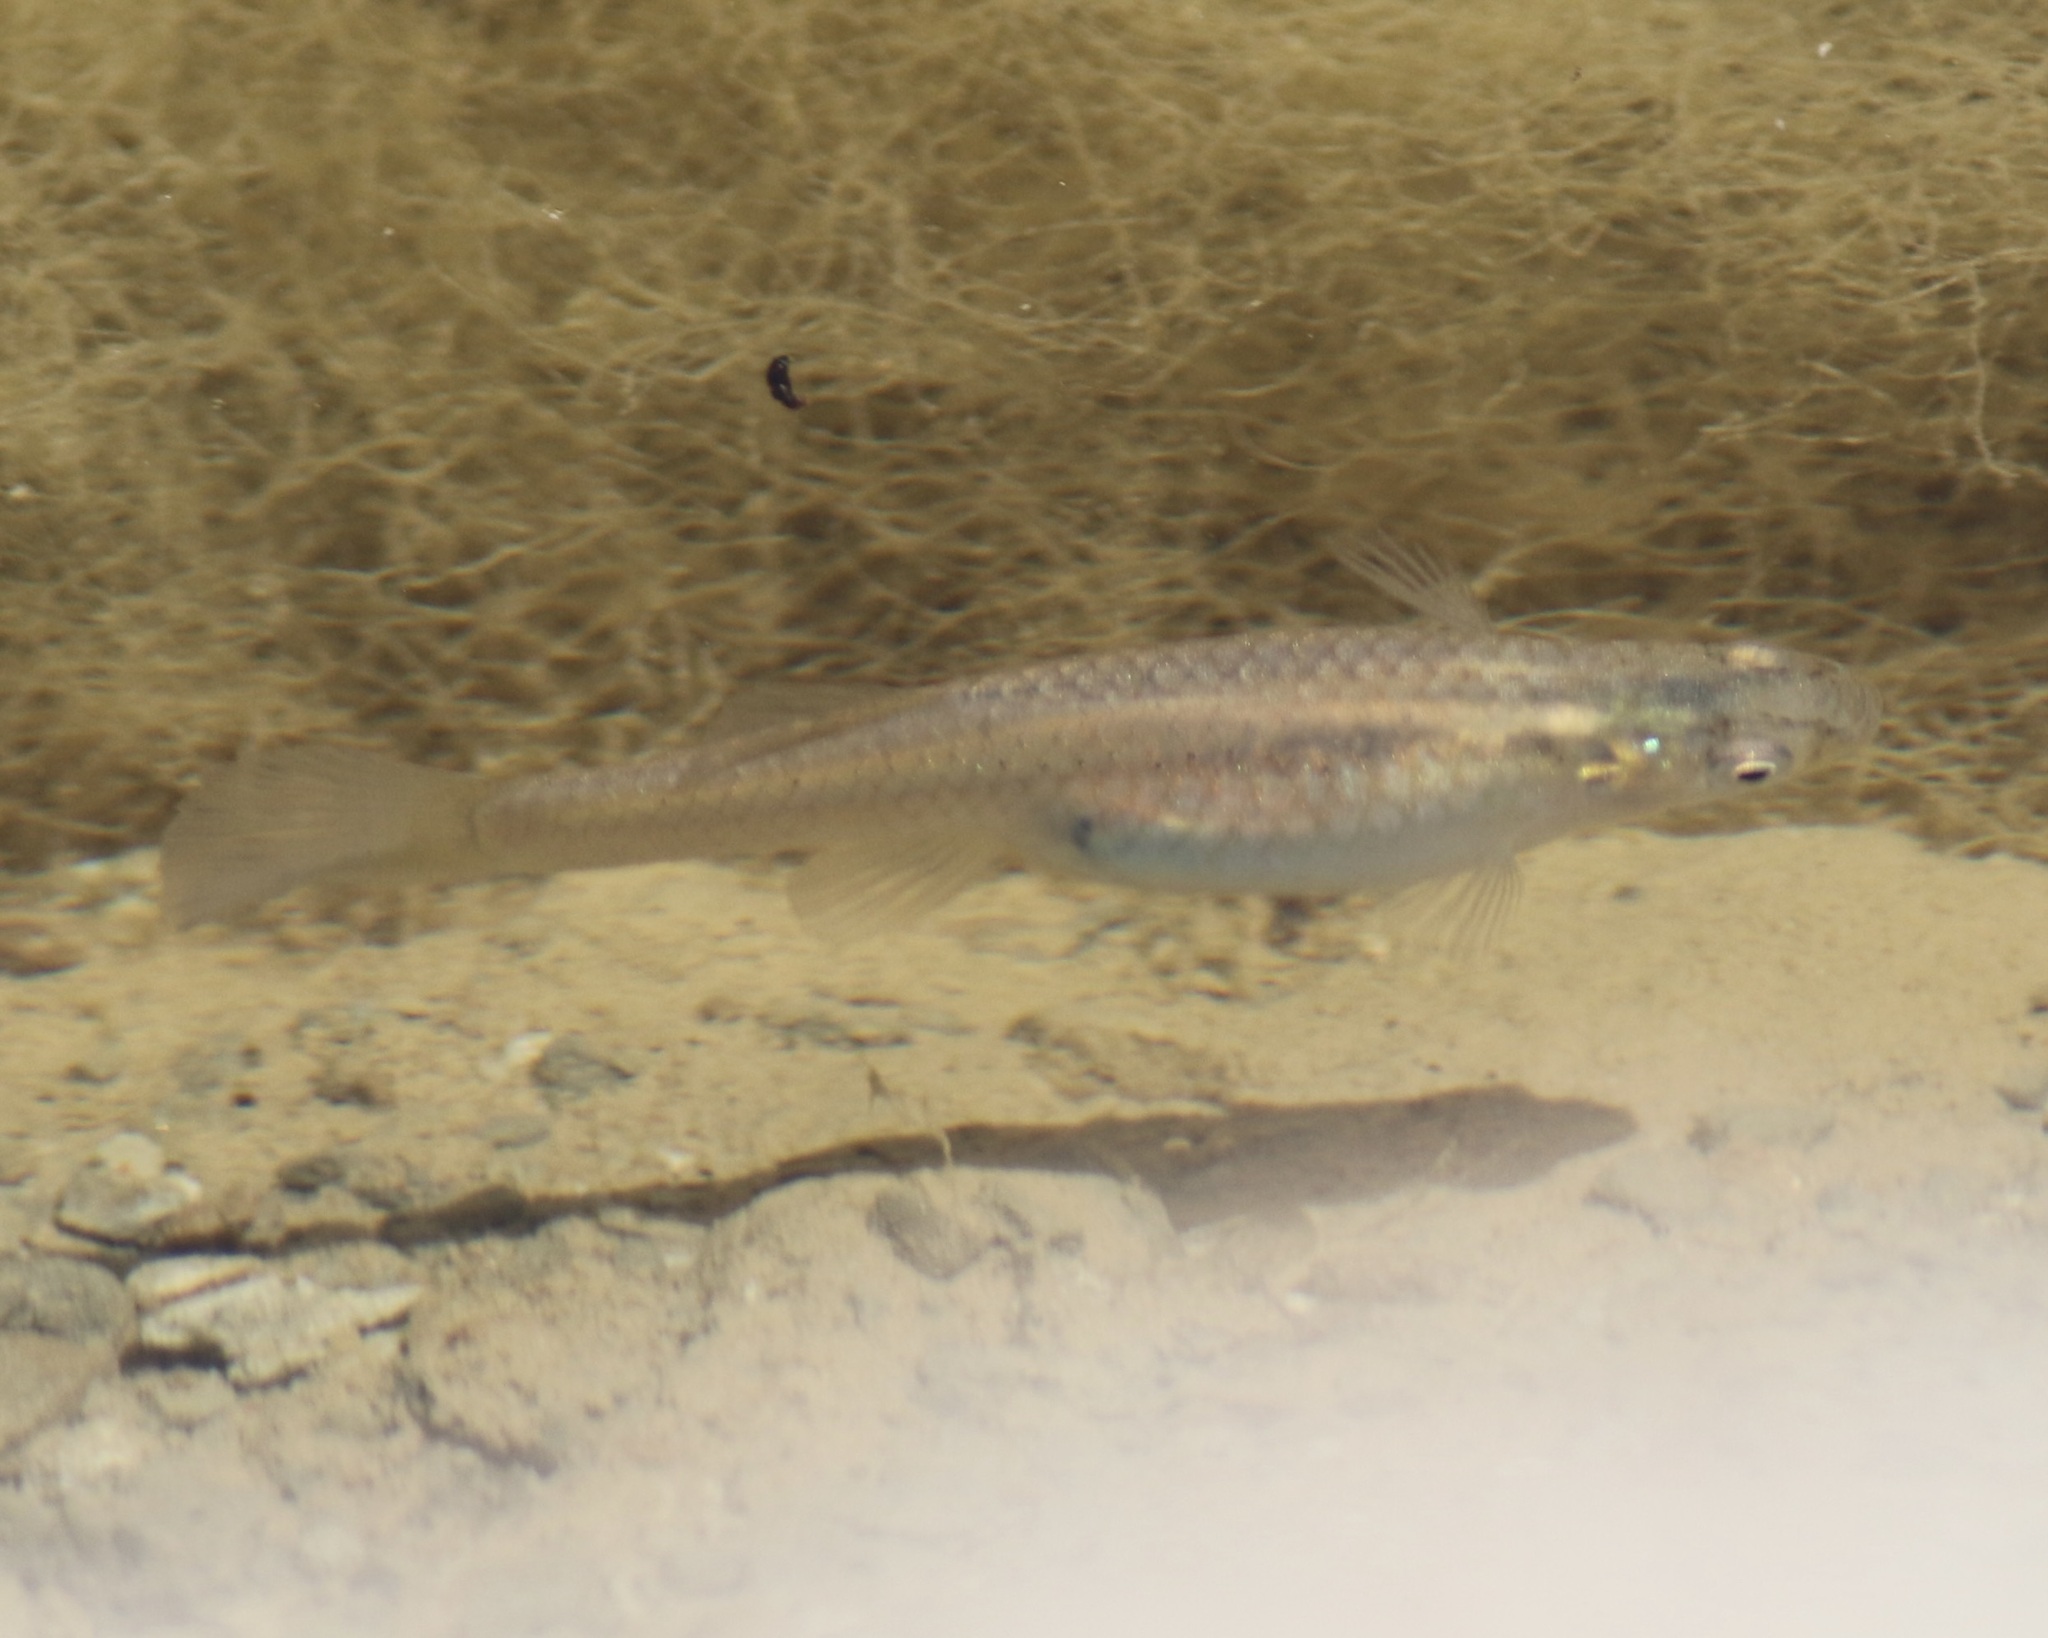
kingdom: Animalia
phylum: Chordata
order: Cyprinodontiformes
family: Poeciliidae
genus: Gambusia
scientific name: Gambusia affinis
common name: Mosquitofish
